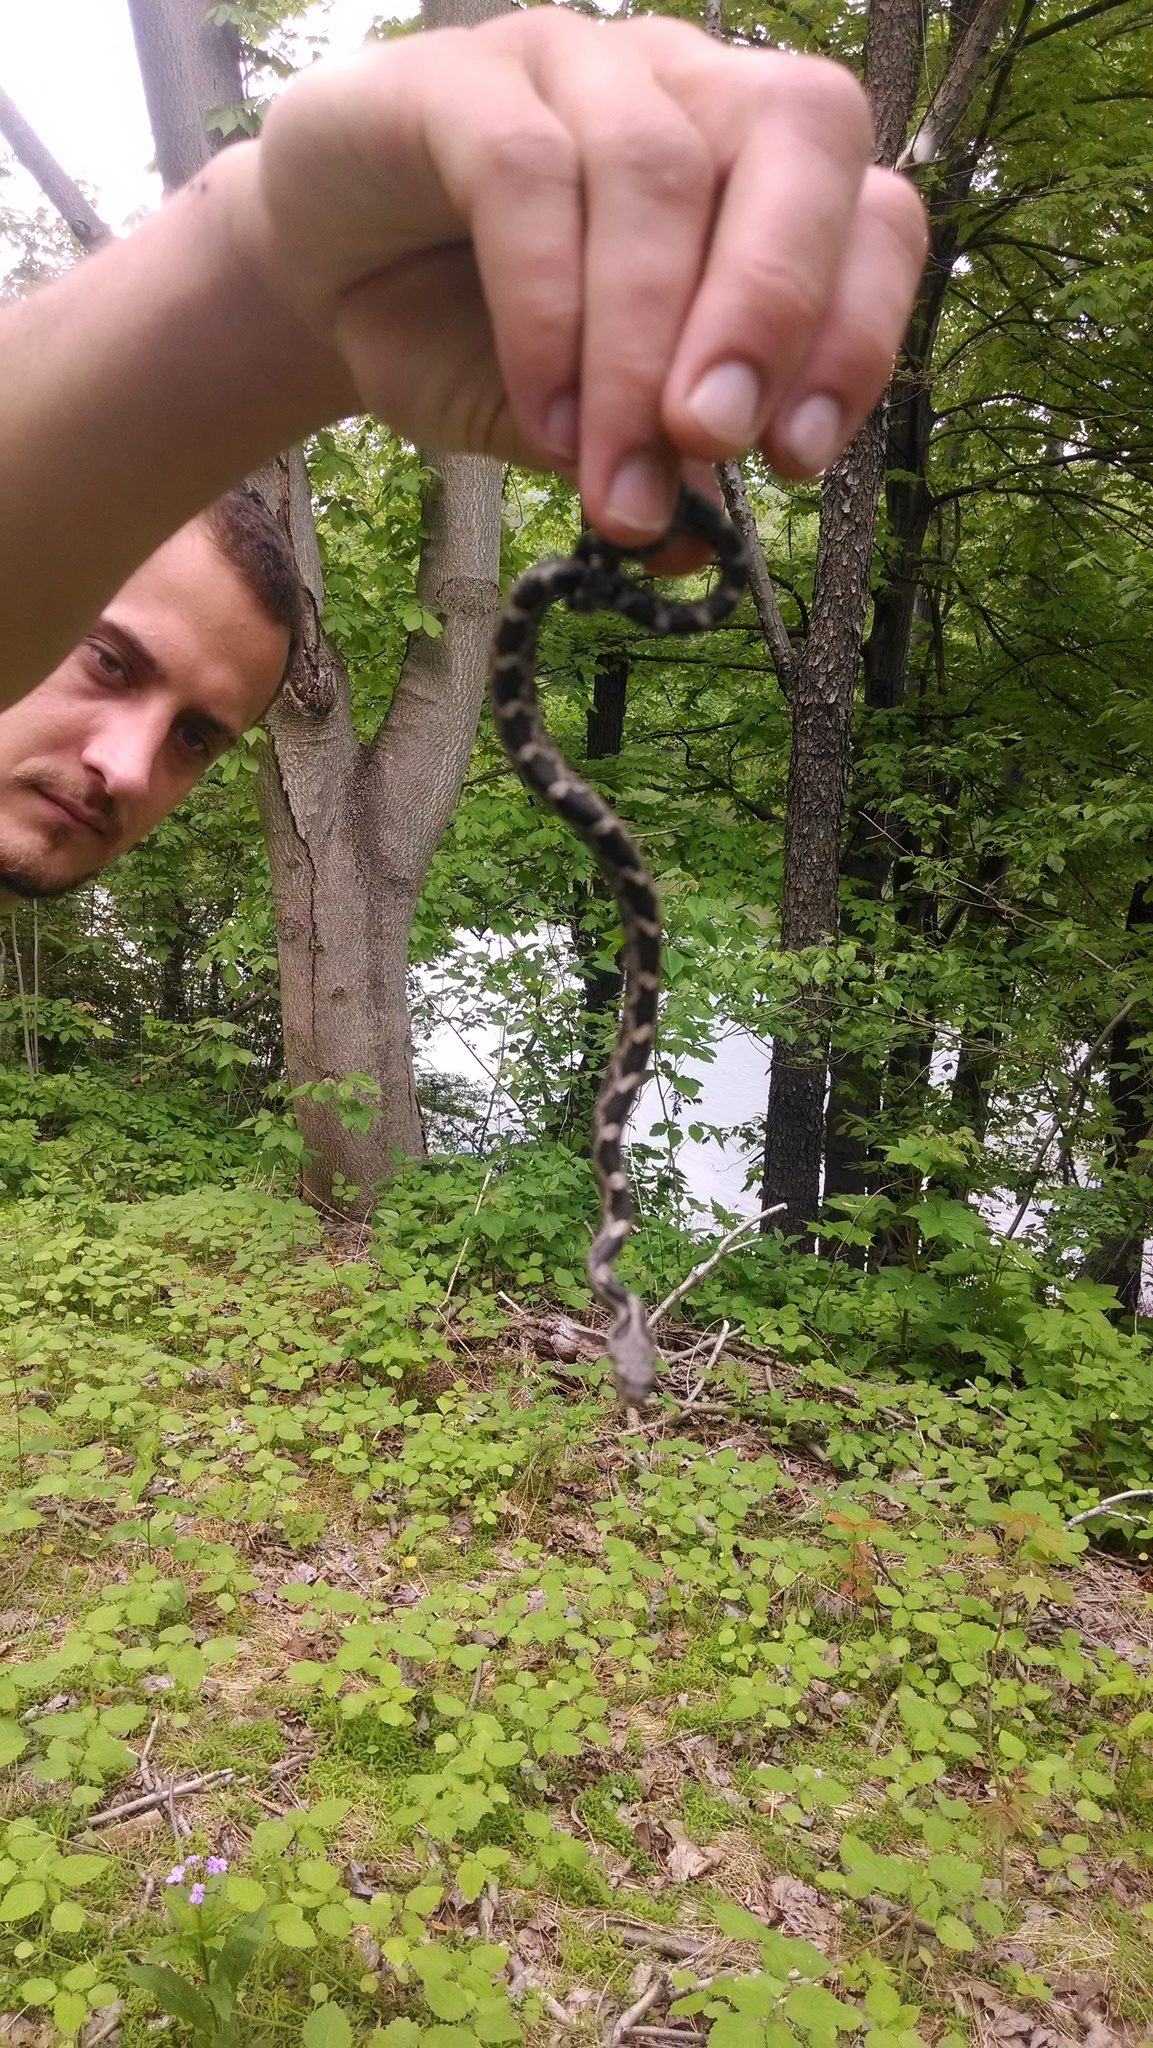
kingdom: Animalia
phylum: Chordata
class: Squamata
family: Colubridae
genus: Pantherophis
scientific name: Pantherophis spiloides
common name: Gray rat snake
